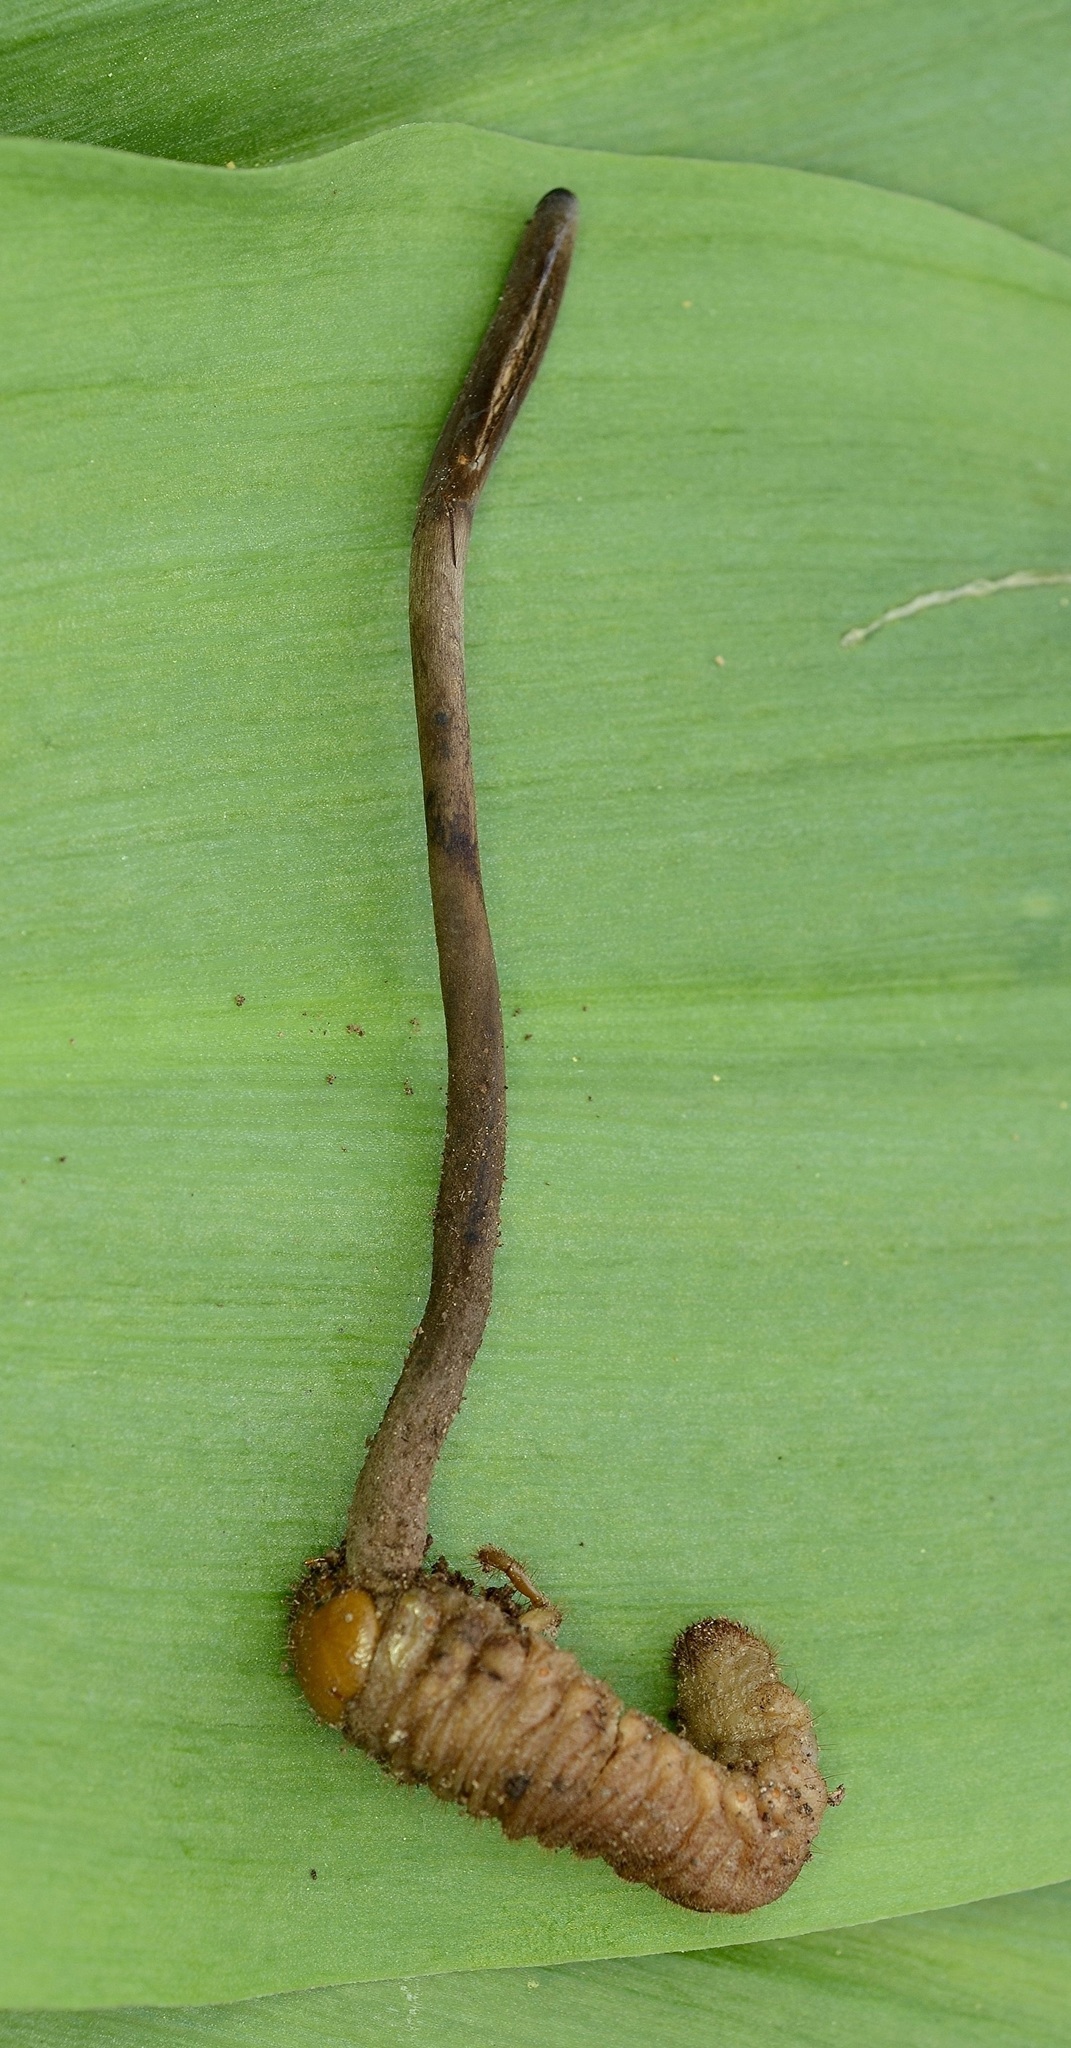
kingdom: Fungi
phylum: Ascomycota
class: Sordariomycetes
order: Hypocreales
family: Ophiocordycipitaceae
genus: Ophiocordyceps
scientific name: Ophiocordyceps ravenelii
